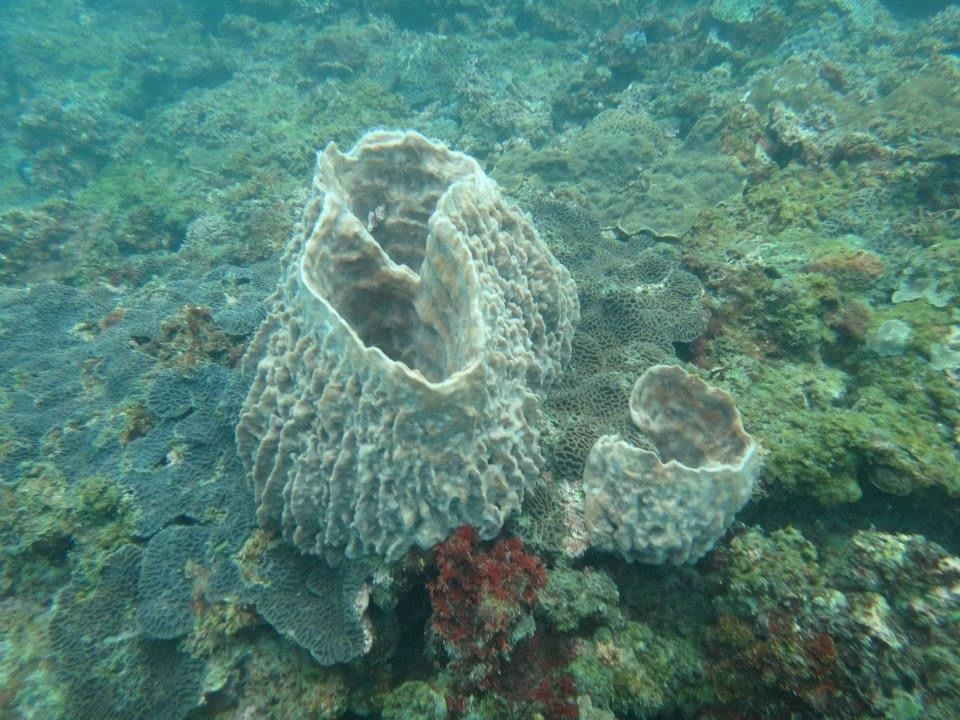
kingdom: Animalia
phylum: Porifera
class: Demospongiae
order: Haplosclerida
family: Petrosiidae
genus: Xestospongia
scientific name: Xestospongia testudinaria
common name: Barrel sponge
